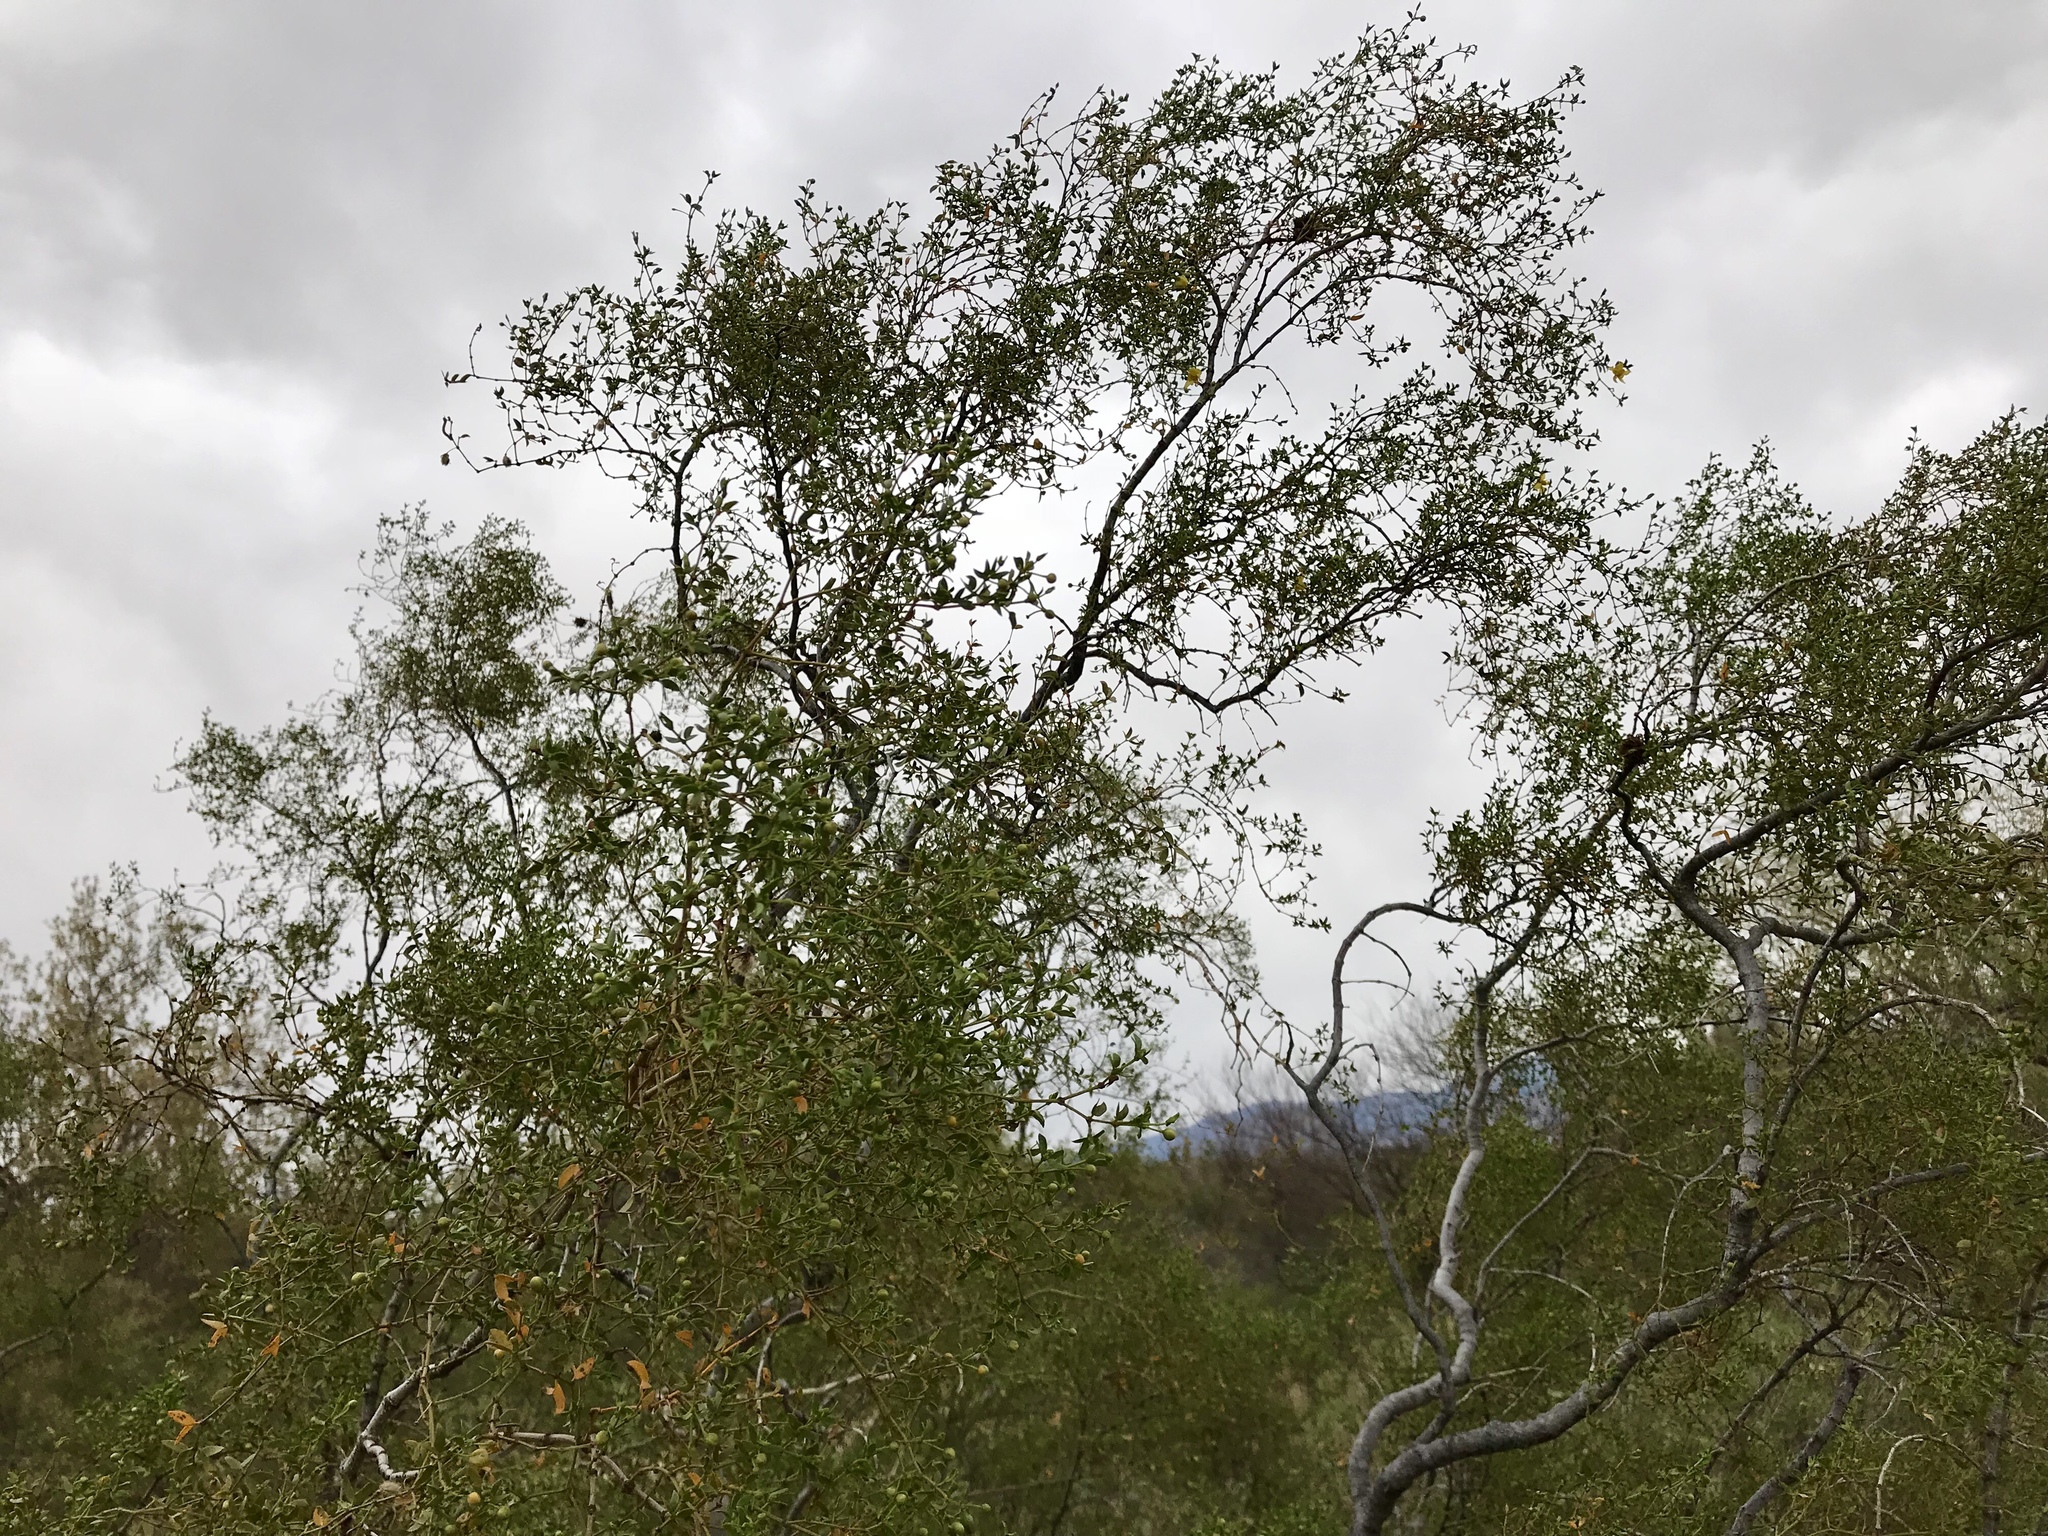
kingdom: Plantae
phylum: Tracheophyta
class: Magnoliopsida
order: Zygophyllales
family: Zygophyllaceae
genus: Larrea
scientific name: Larrea tridentata
